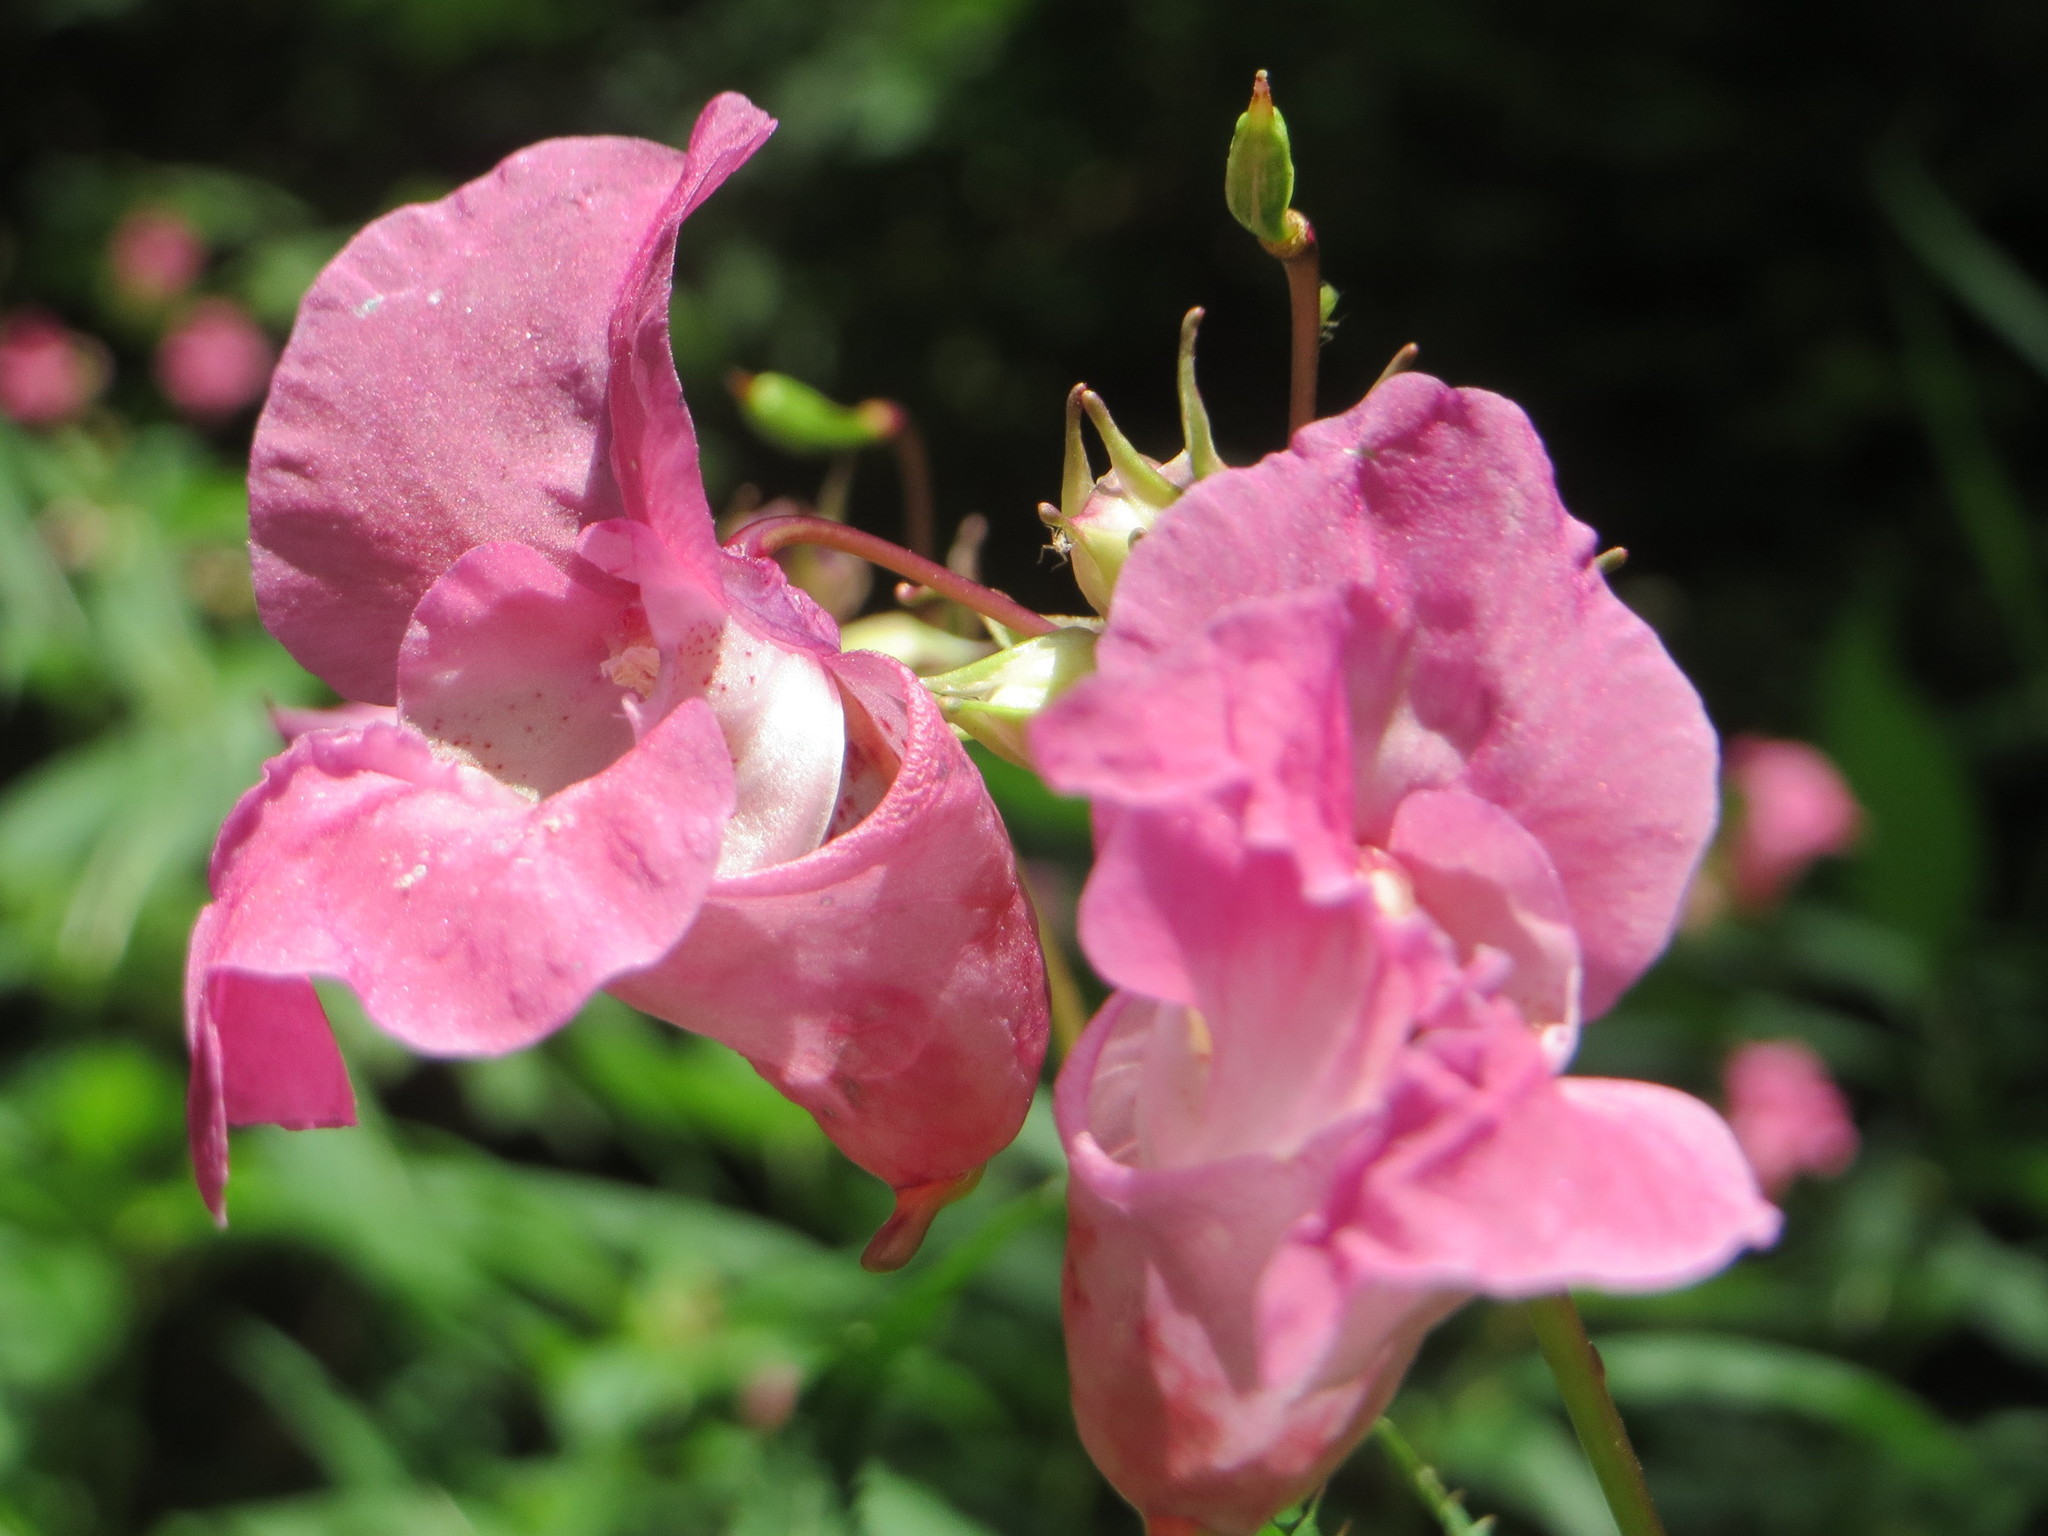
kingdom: Plantae
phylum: Tracheophyta
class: Magnoliopsida
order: Ericales
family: Balsaminaceae
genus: Impatiens
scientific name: Impatiens glandulifera
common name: Himalayan balsam
